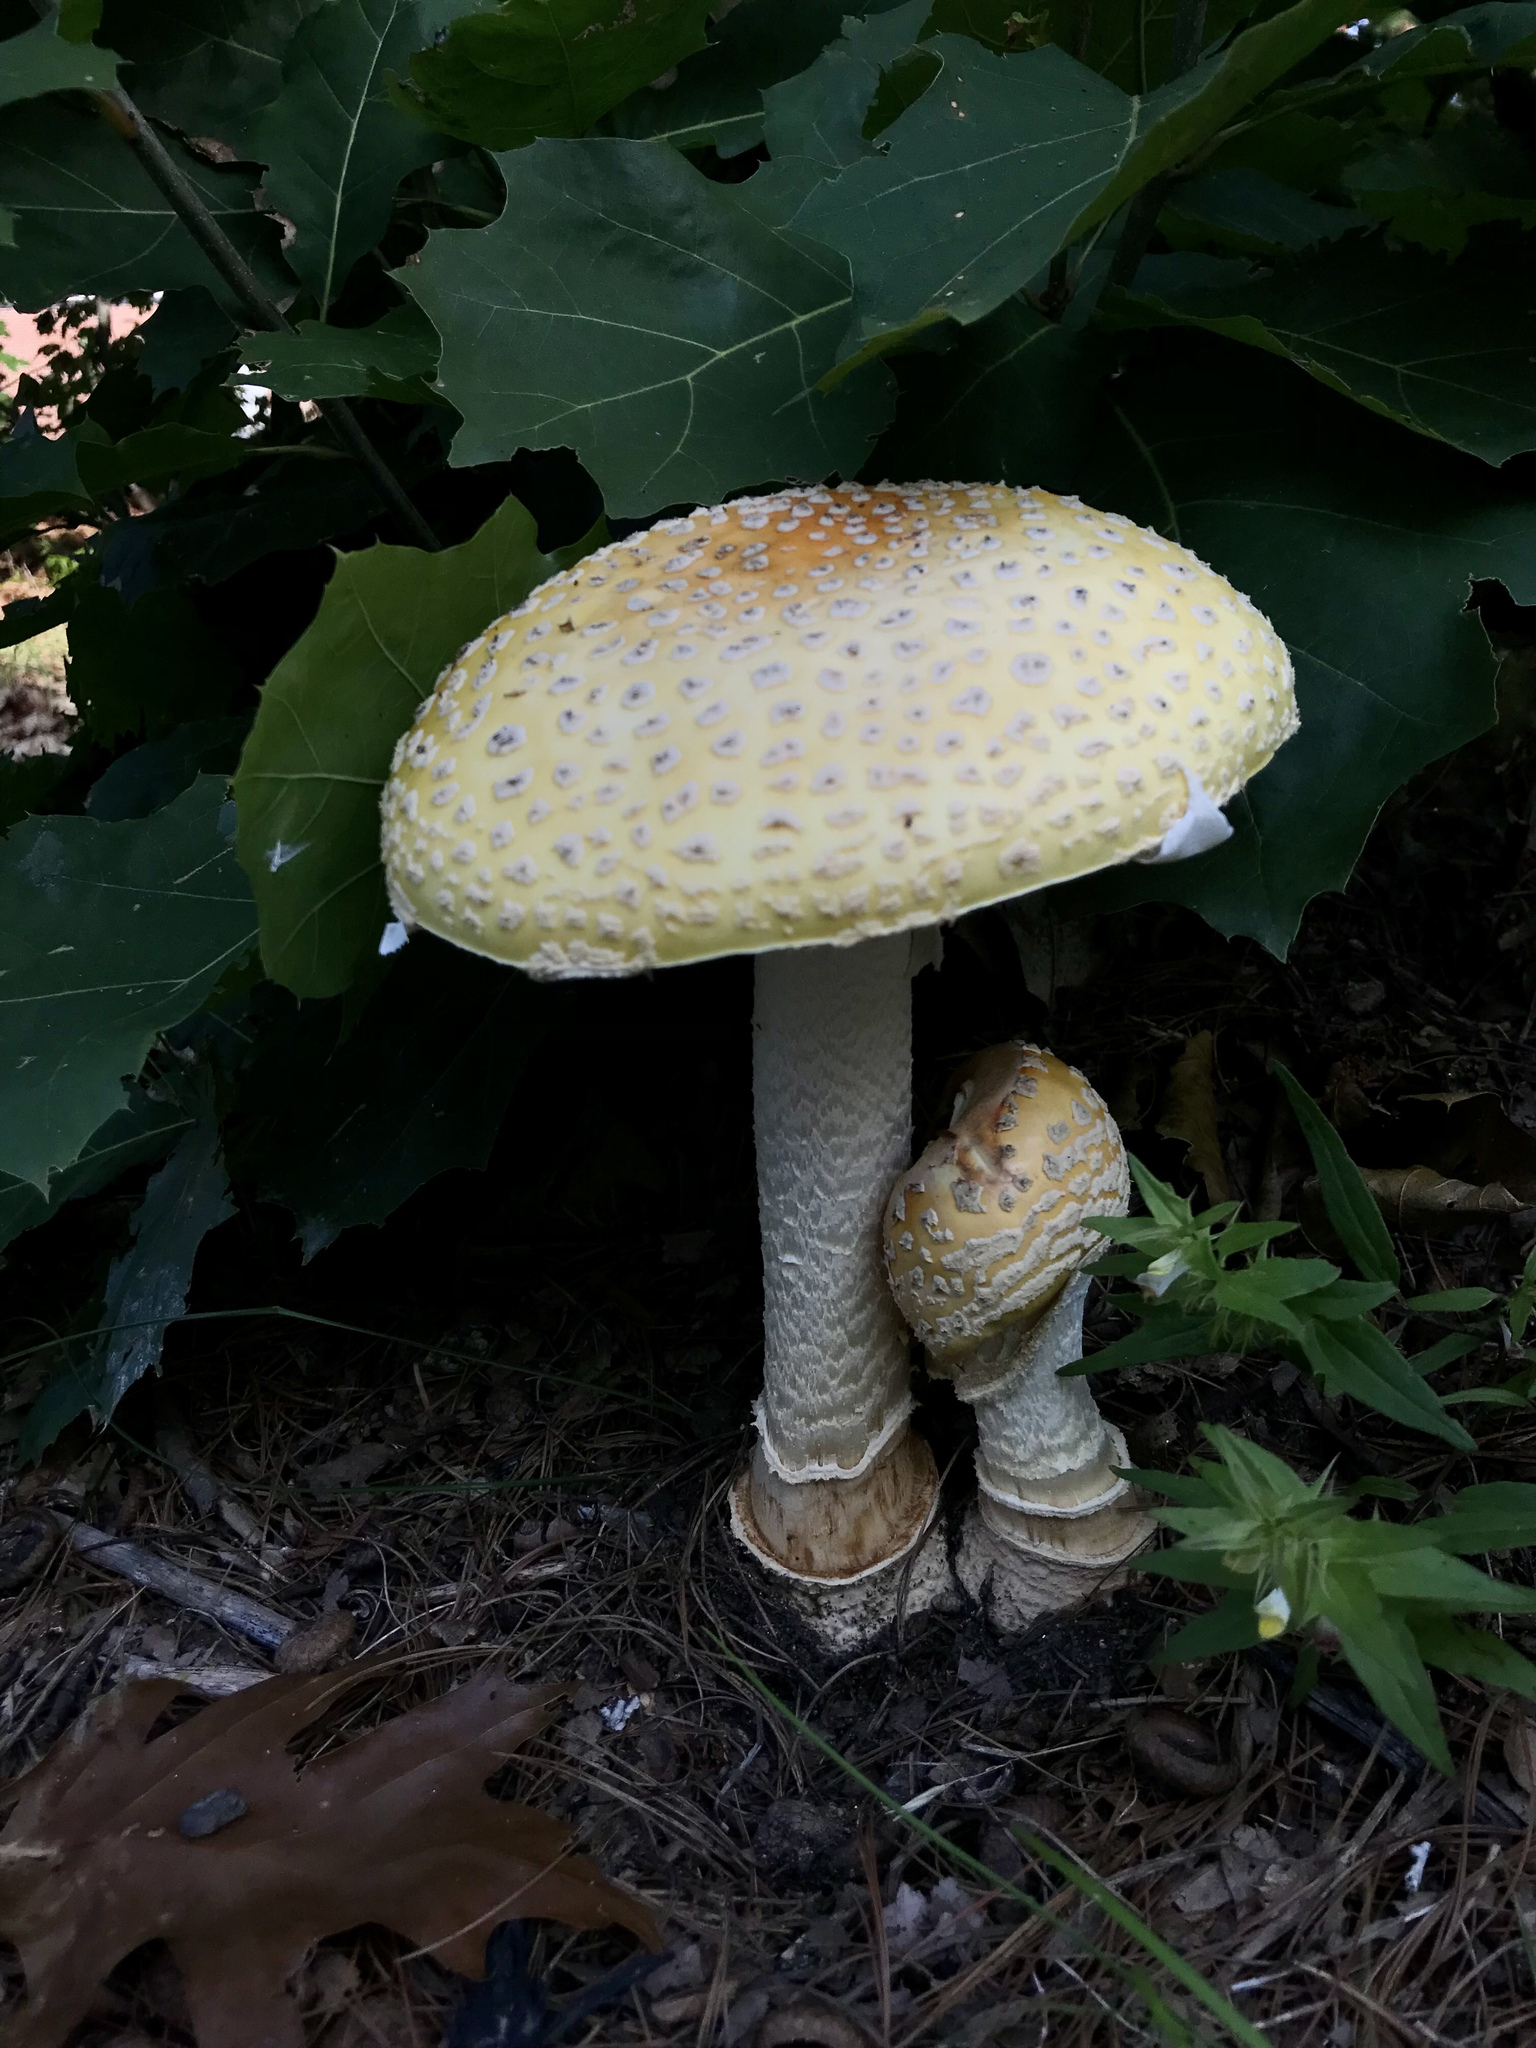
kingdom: Fungi
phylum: Basidiomycota
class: Agaricomycetes
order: Agaricales
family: Amanitaceae
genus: Amanita
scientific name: Amanita muscaria
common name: Fly agaric
